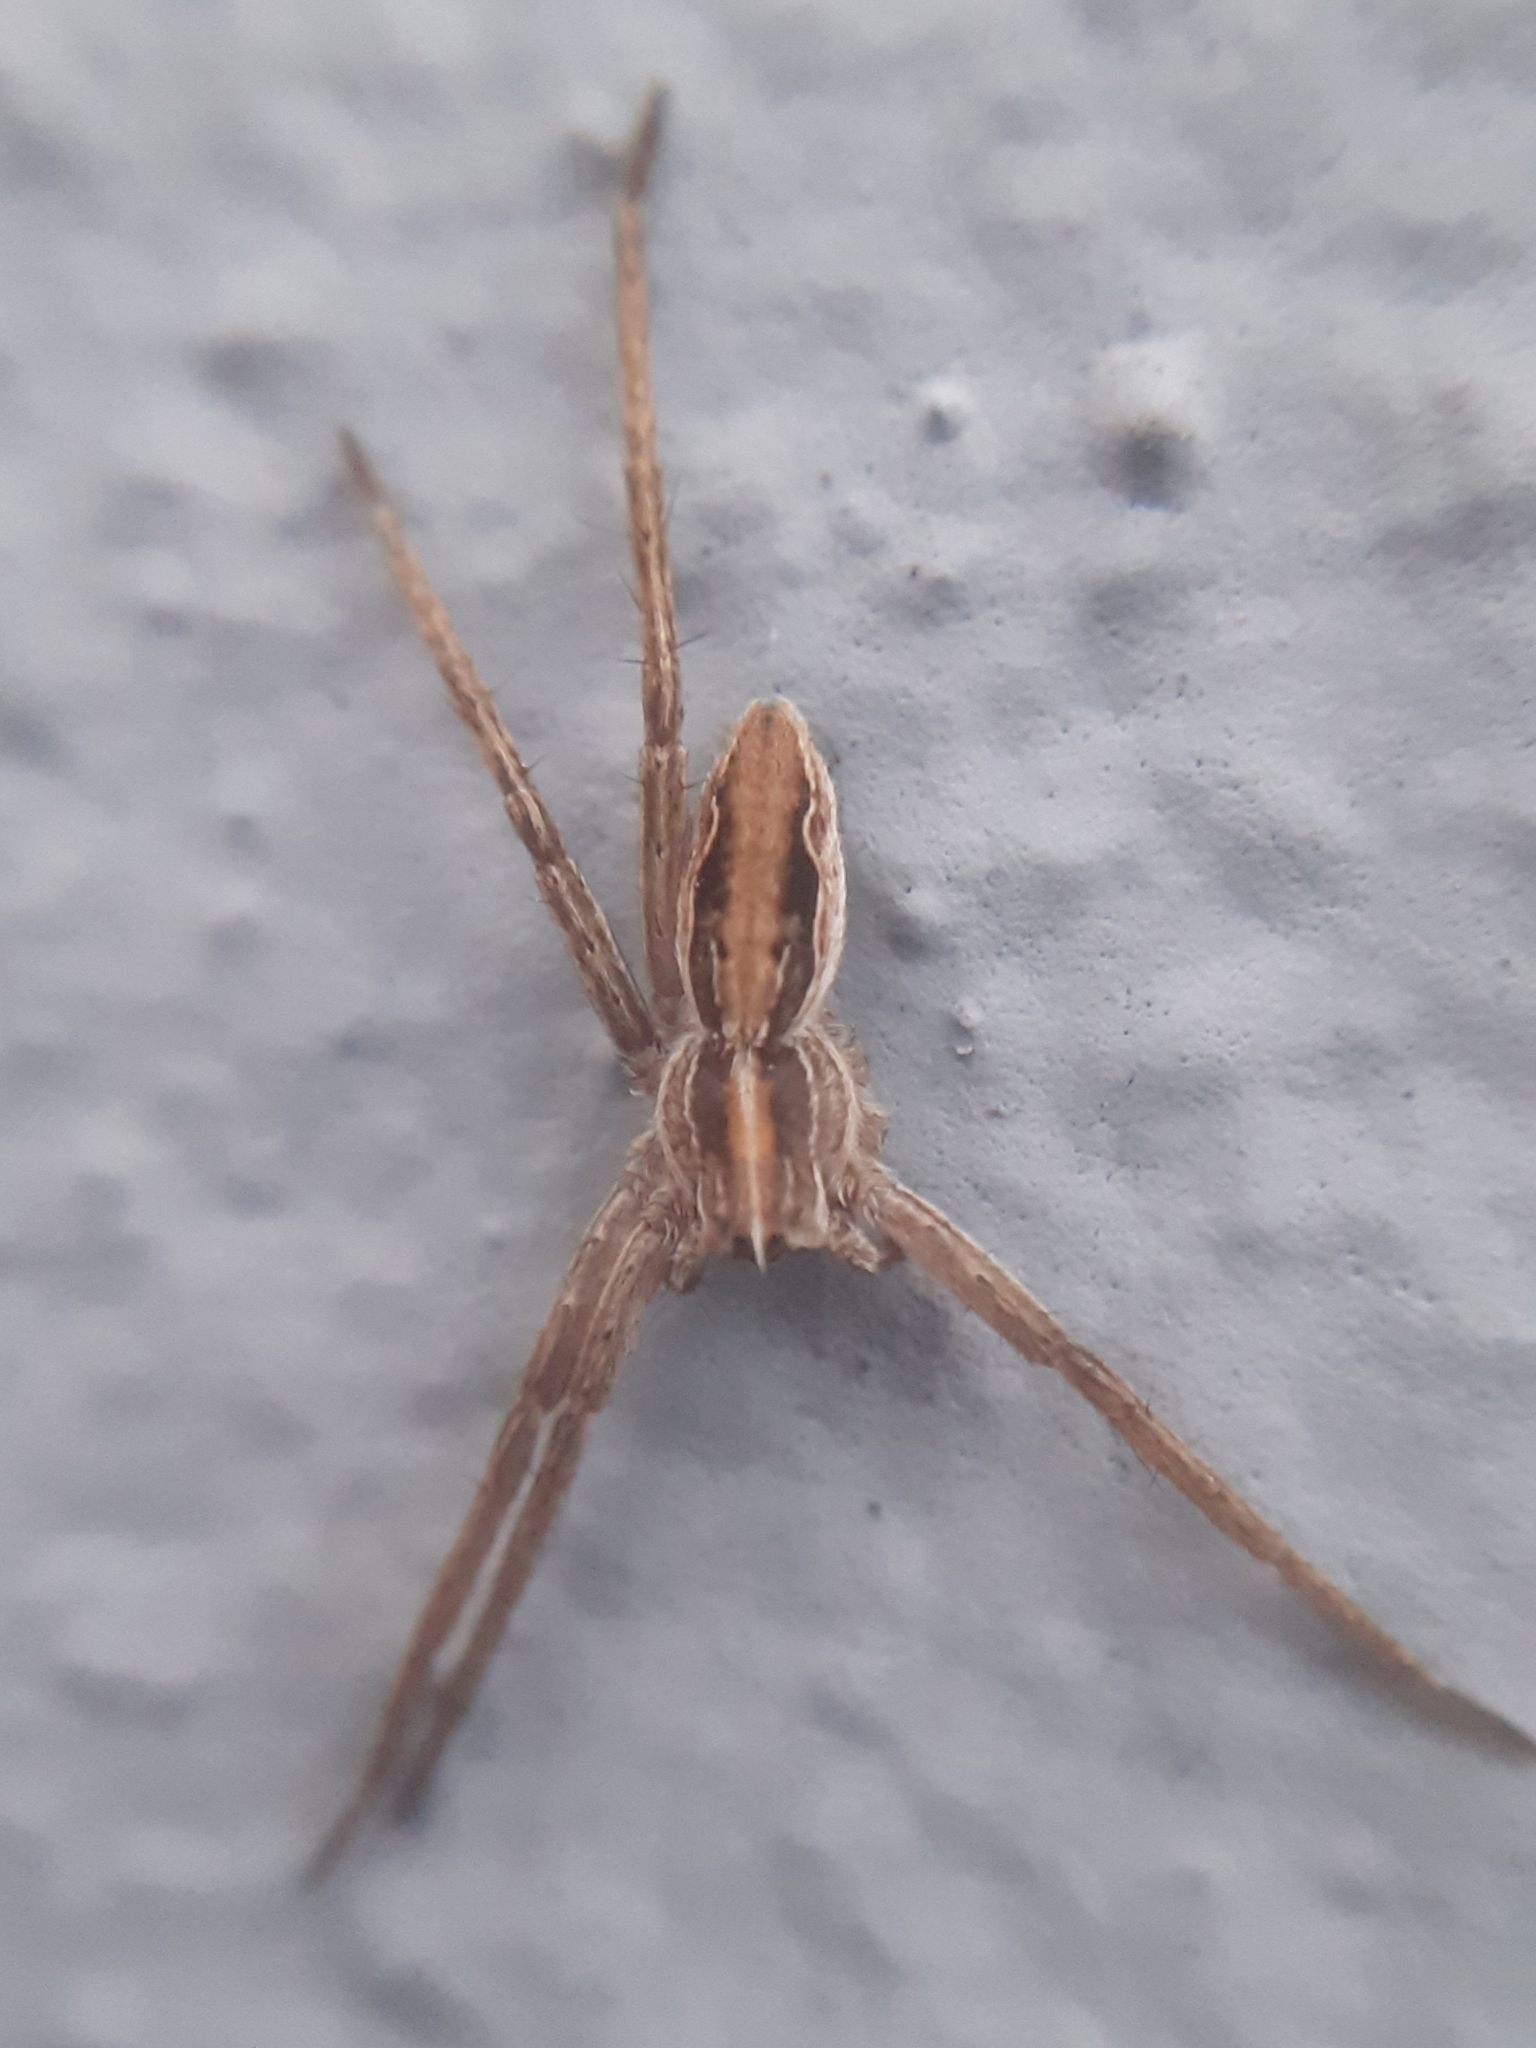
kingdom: Animalia
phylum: Arthropoda
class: Arachnida
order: Araneae
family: Pisauridae
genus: Pisaura
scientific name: Pisaura mirabilis
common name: Tent spider
